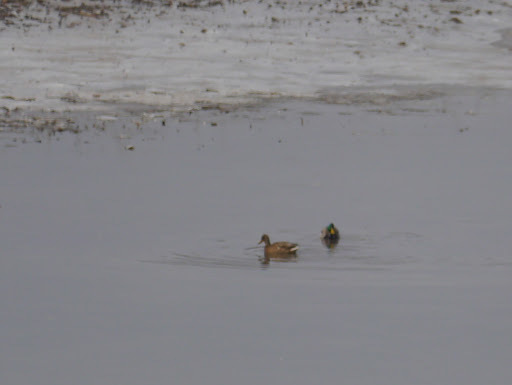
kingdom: Animalia
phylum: Chordata
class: Aves
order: Anseriformes
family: Anatidae
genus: Anas
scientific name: Anas platyrhynchos
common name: Mallard
